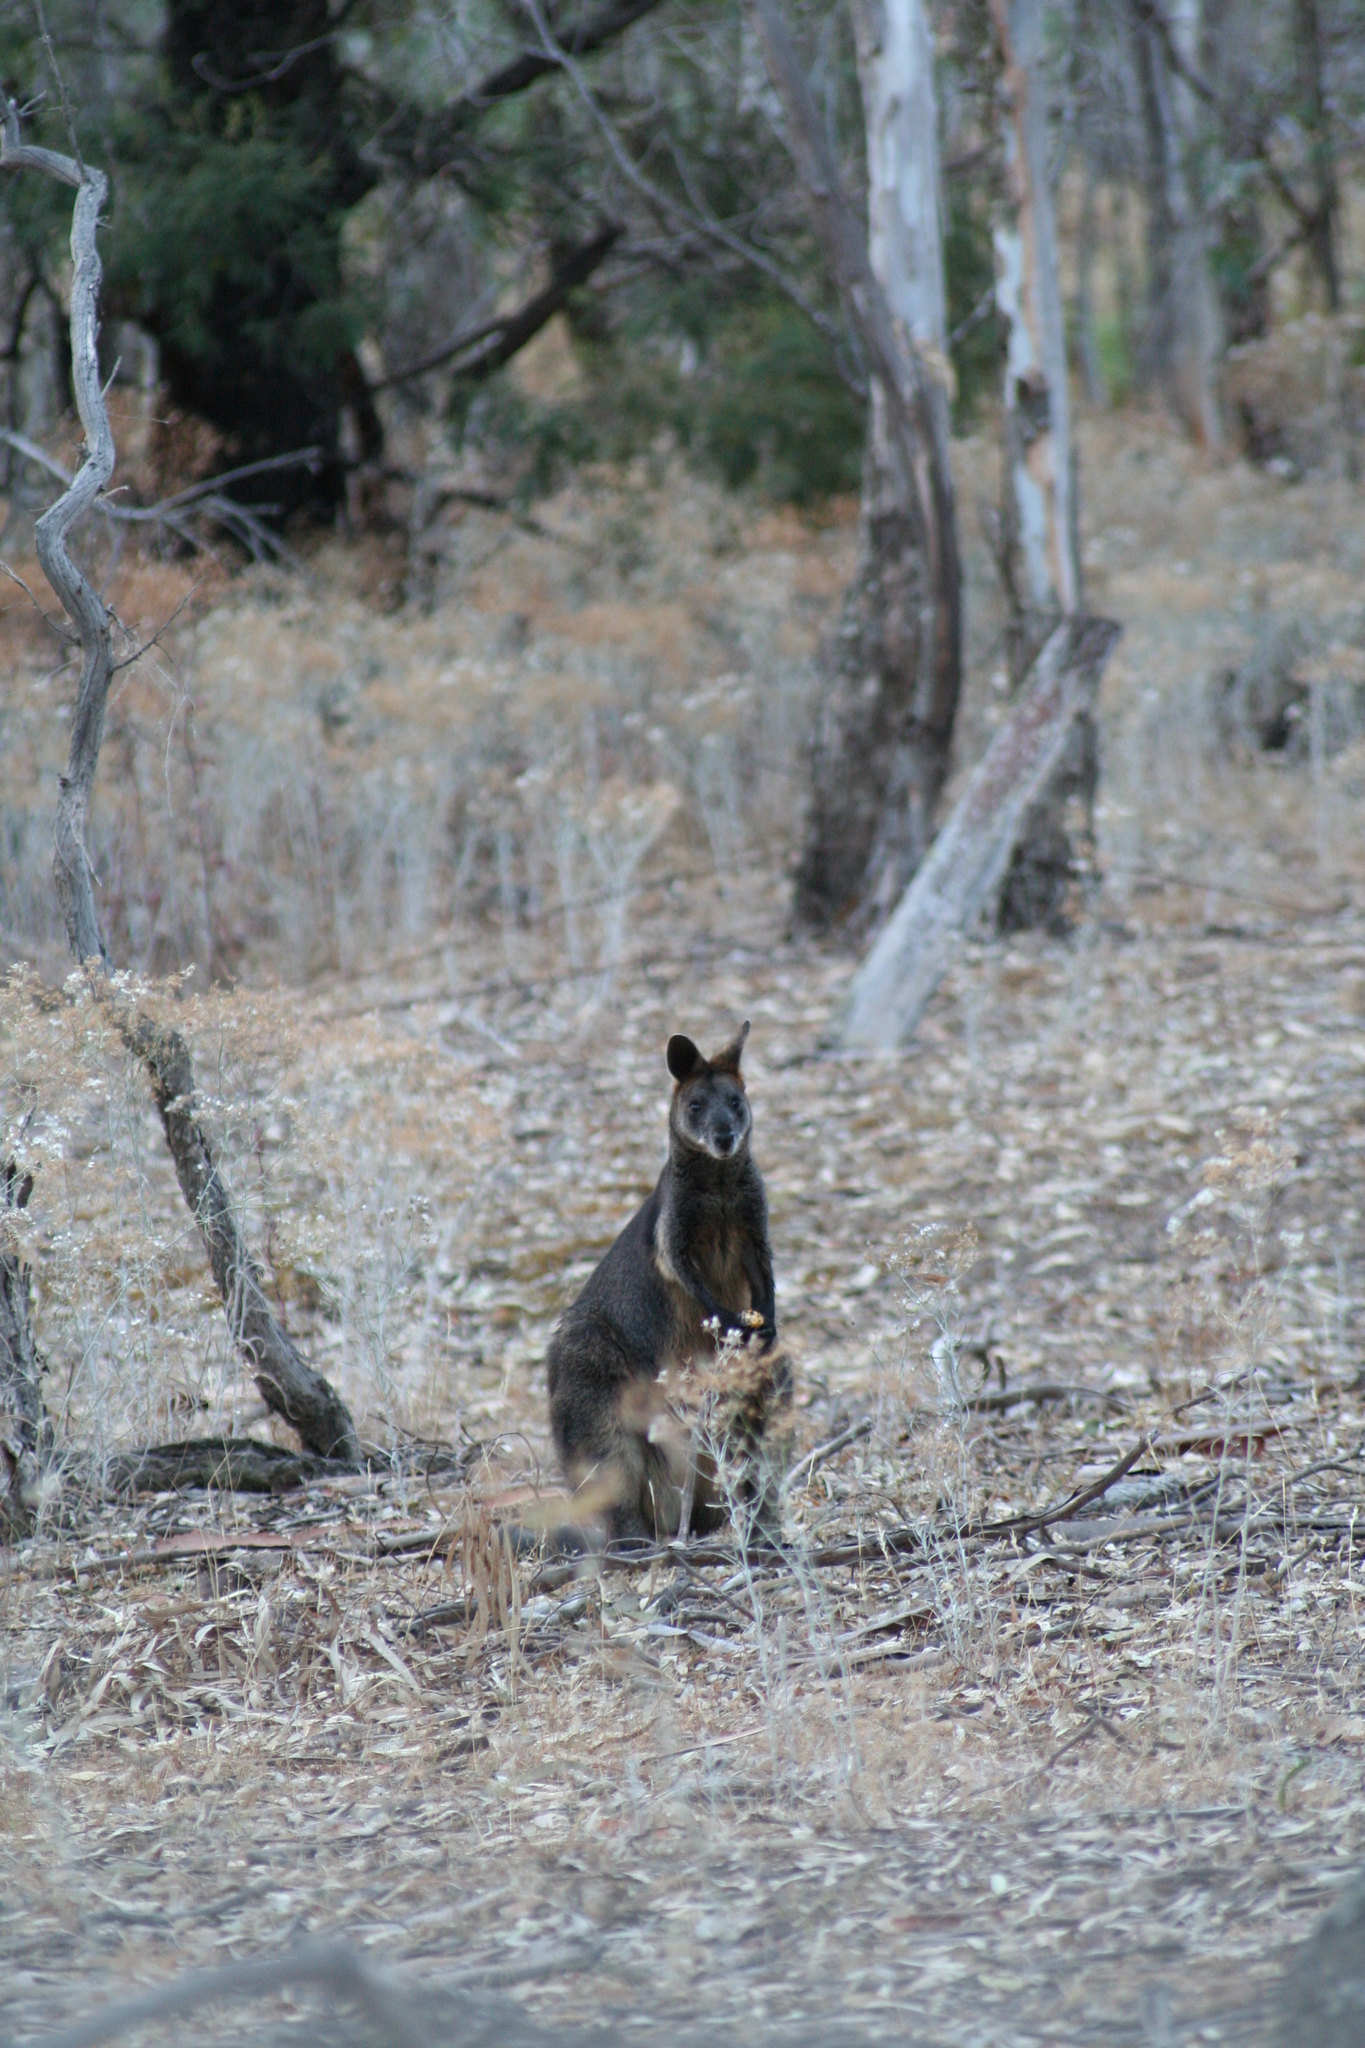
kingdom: Animalia
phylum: Chordata
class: Mammalia
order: Diprotodontia
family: Macropodidae
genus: Wallabia
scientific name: Wallabia bicolor
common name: Swamp wallaby
